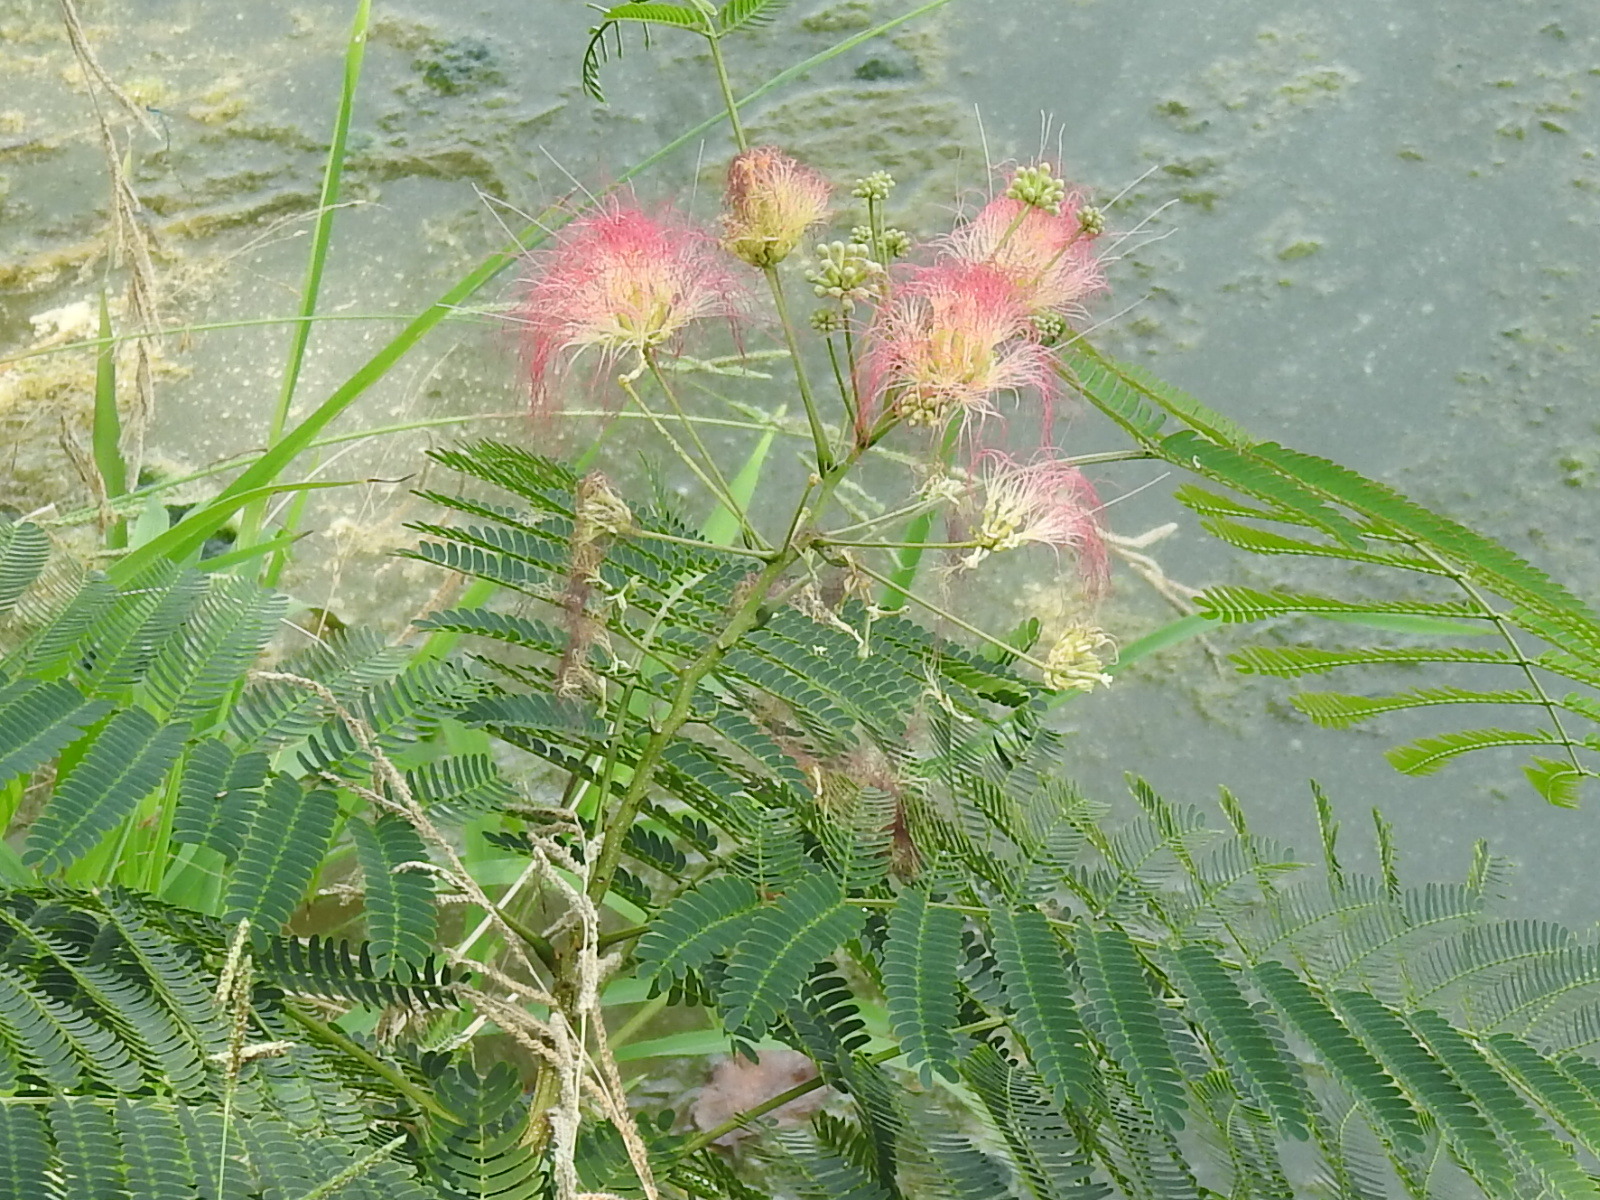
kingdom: Plantae
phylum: Tracheophyta
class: Magnoliopsida
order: Fabales
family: Fabaceae
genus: Albizia
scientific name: Albizia julibrissin
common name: Silktree
